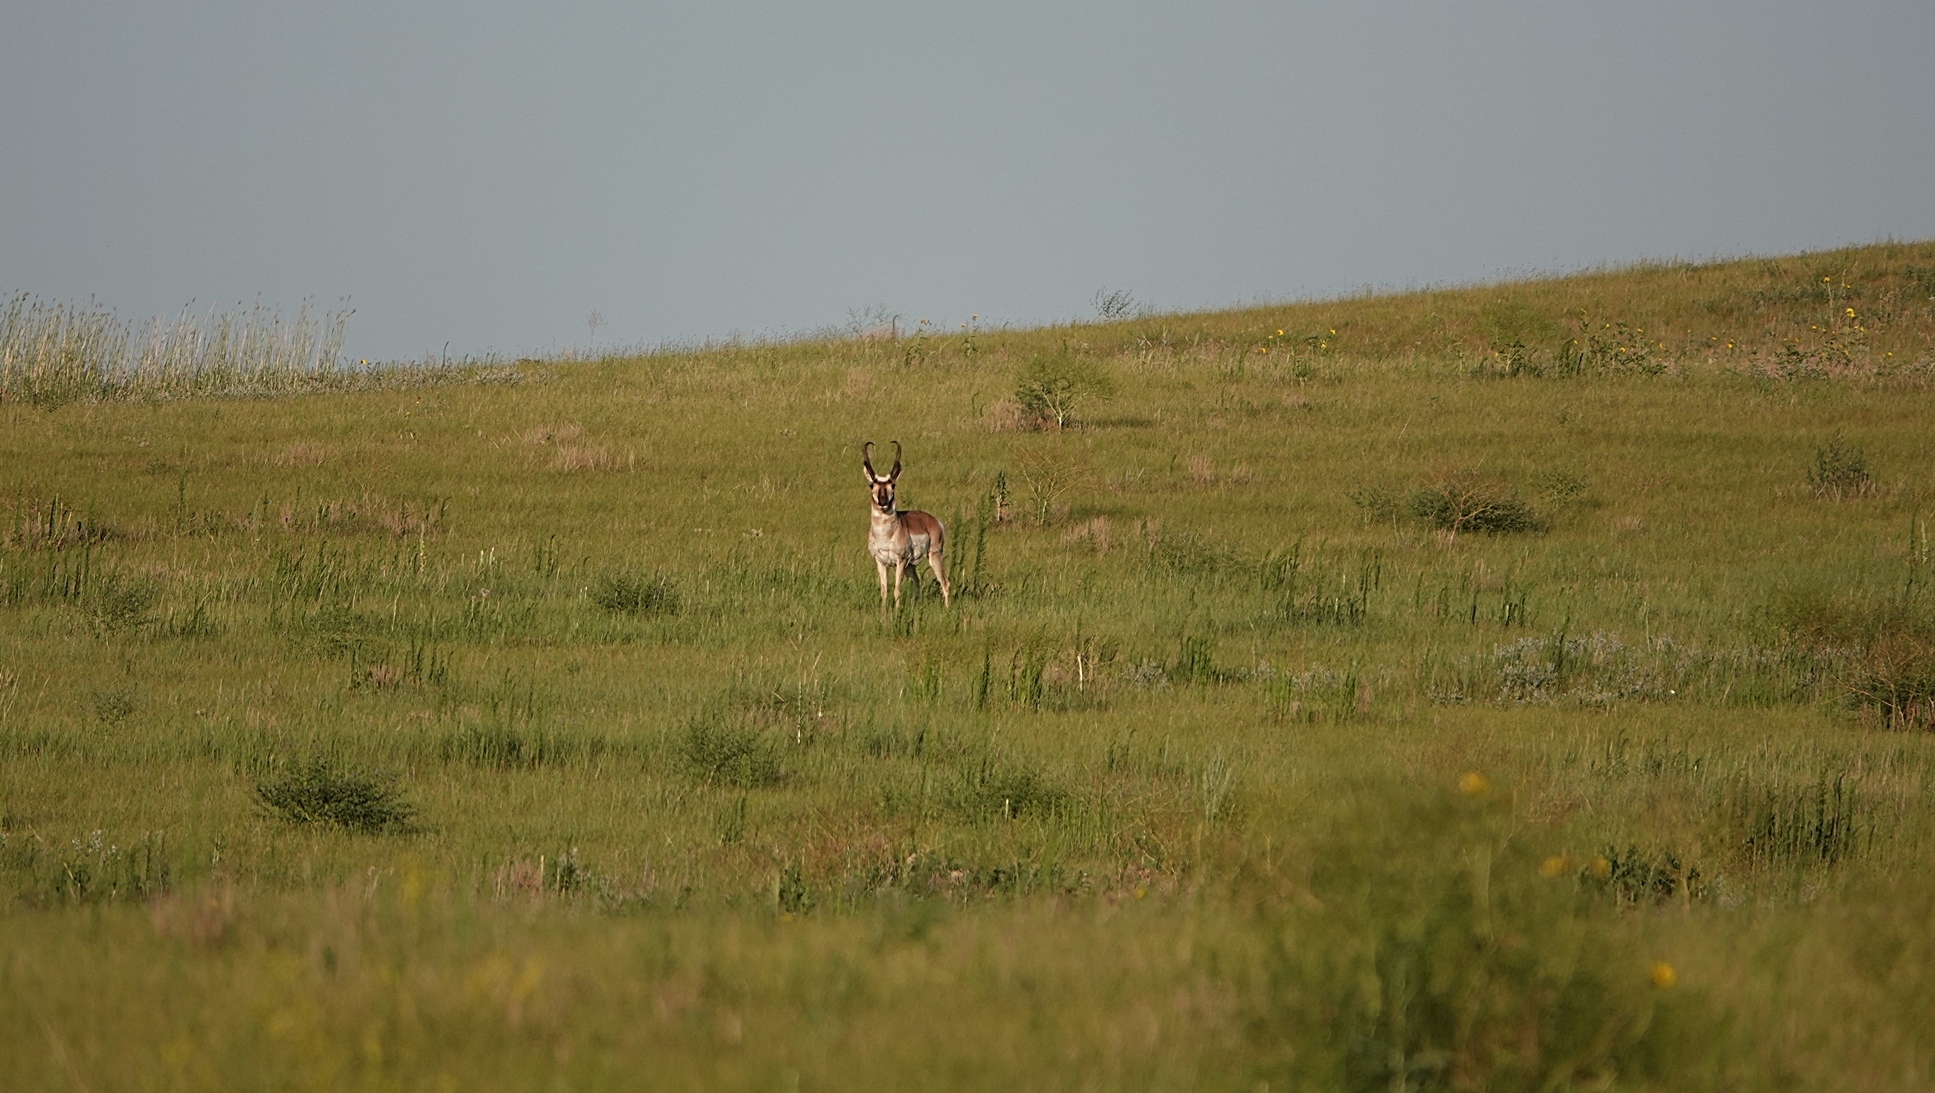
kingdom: Animalia
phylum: Chordata
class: Mammalia
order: Artiodactyla
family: Antilocapridae
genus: Antilocapra
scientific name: Antilocapra americana
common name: Pronghorn
